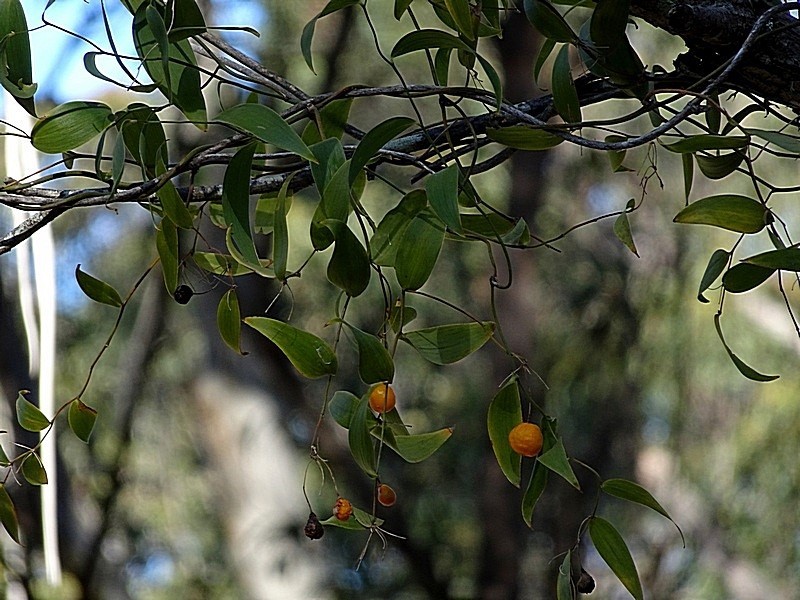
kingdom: Plantae
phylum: Tracheophyta
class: Liliopsida
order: Asparagales
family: Asparagaceae
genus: Eustrephus
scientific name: Eustrephus latifolius
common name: Orangevine
